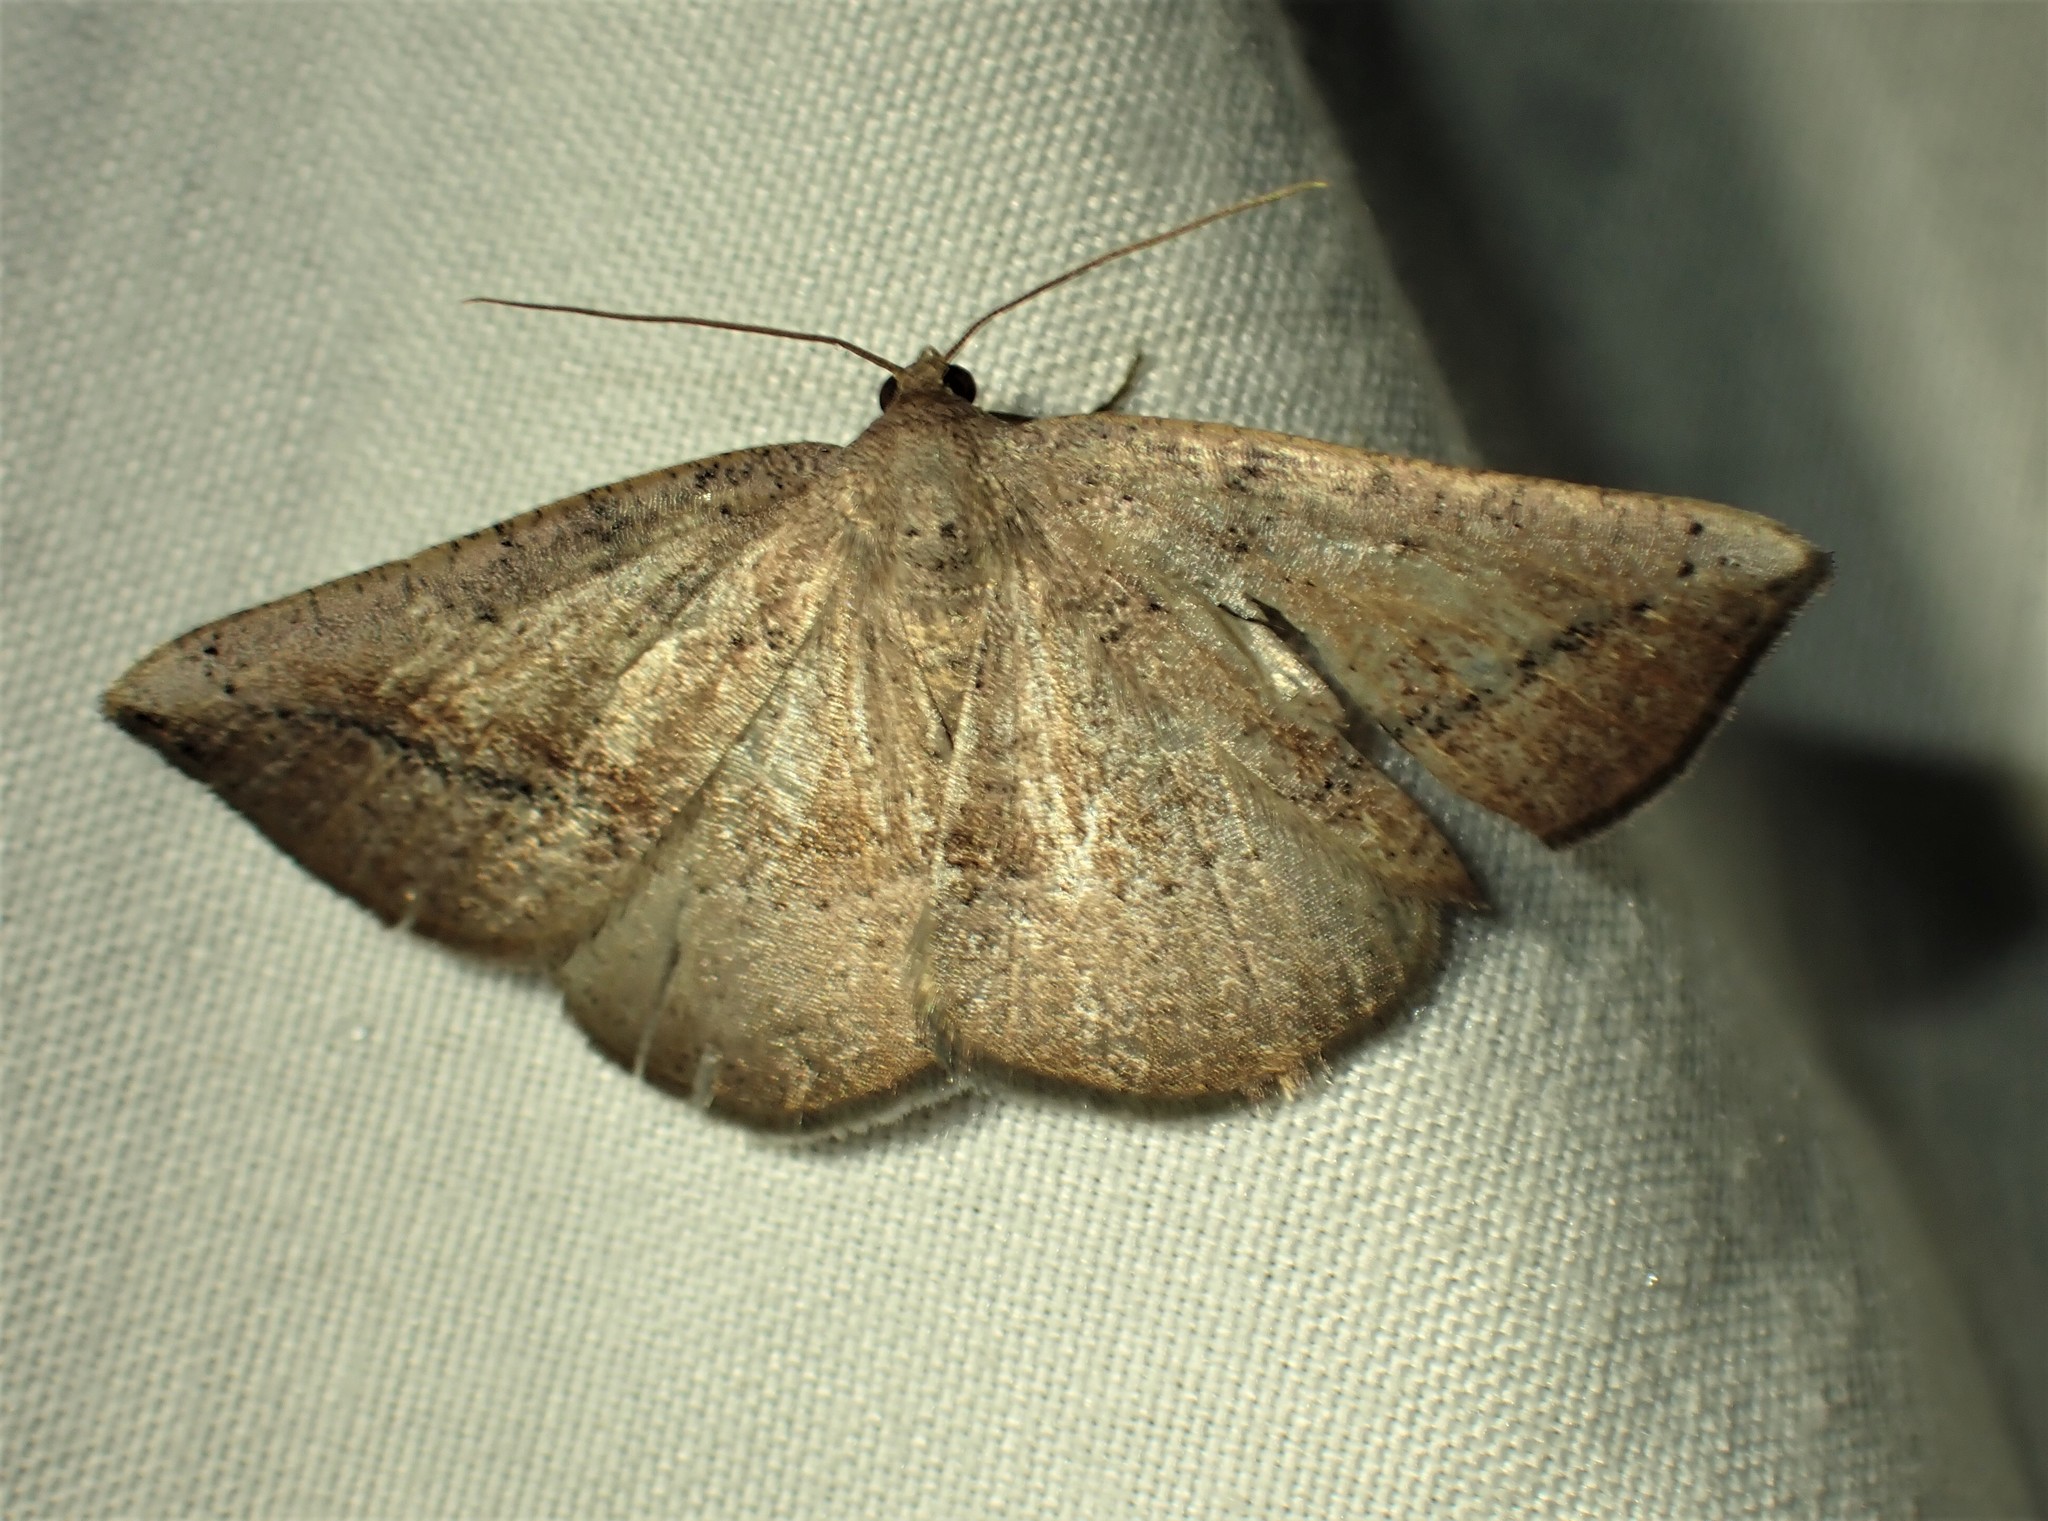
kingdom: Animalia
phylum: Arthropoda
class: Insecta
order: Lepidoptera
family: Geometridae
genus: Tacparia
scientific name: Tacparia atropunctata
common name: Northern pale alder
